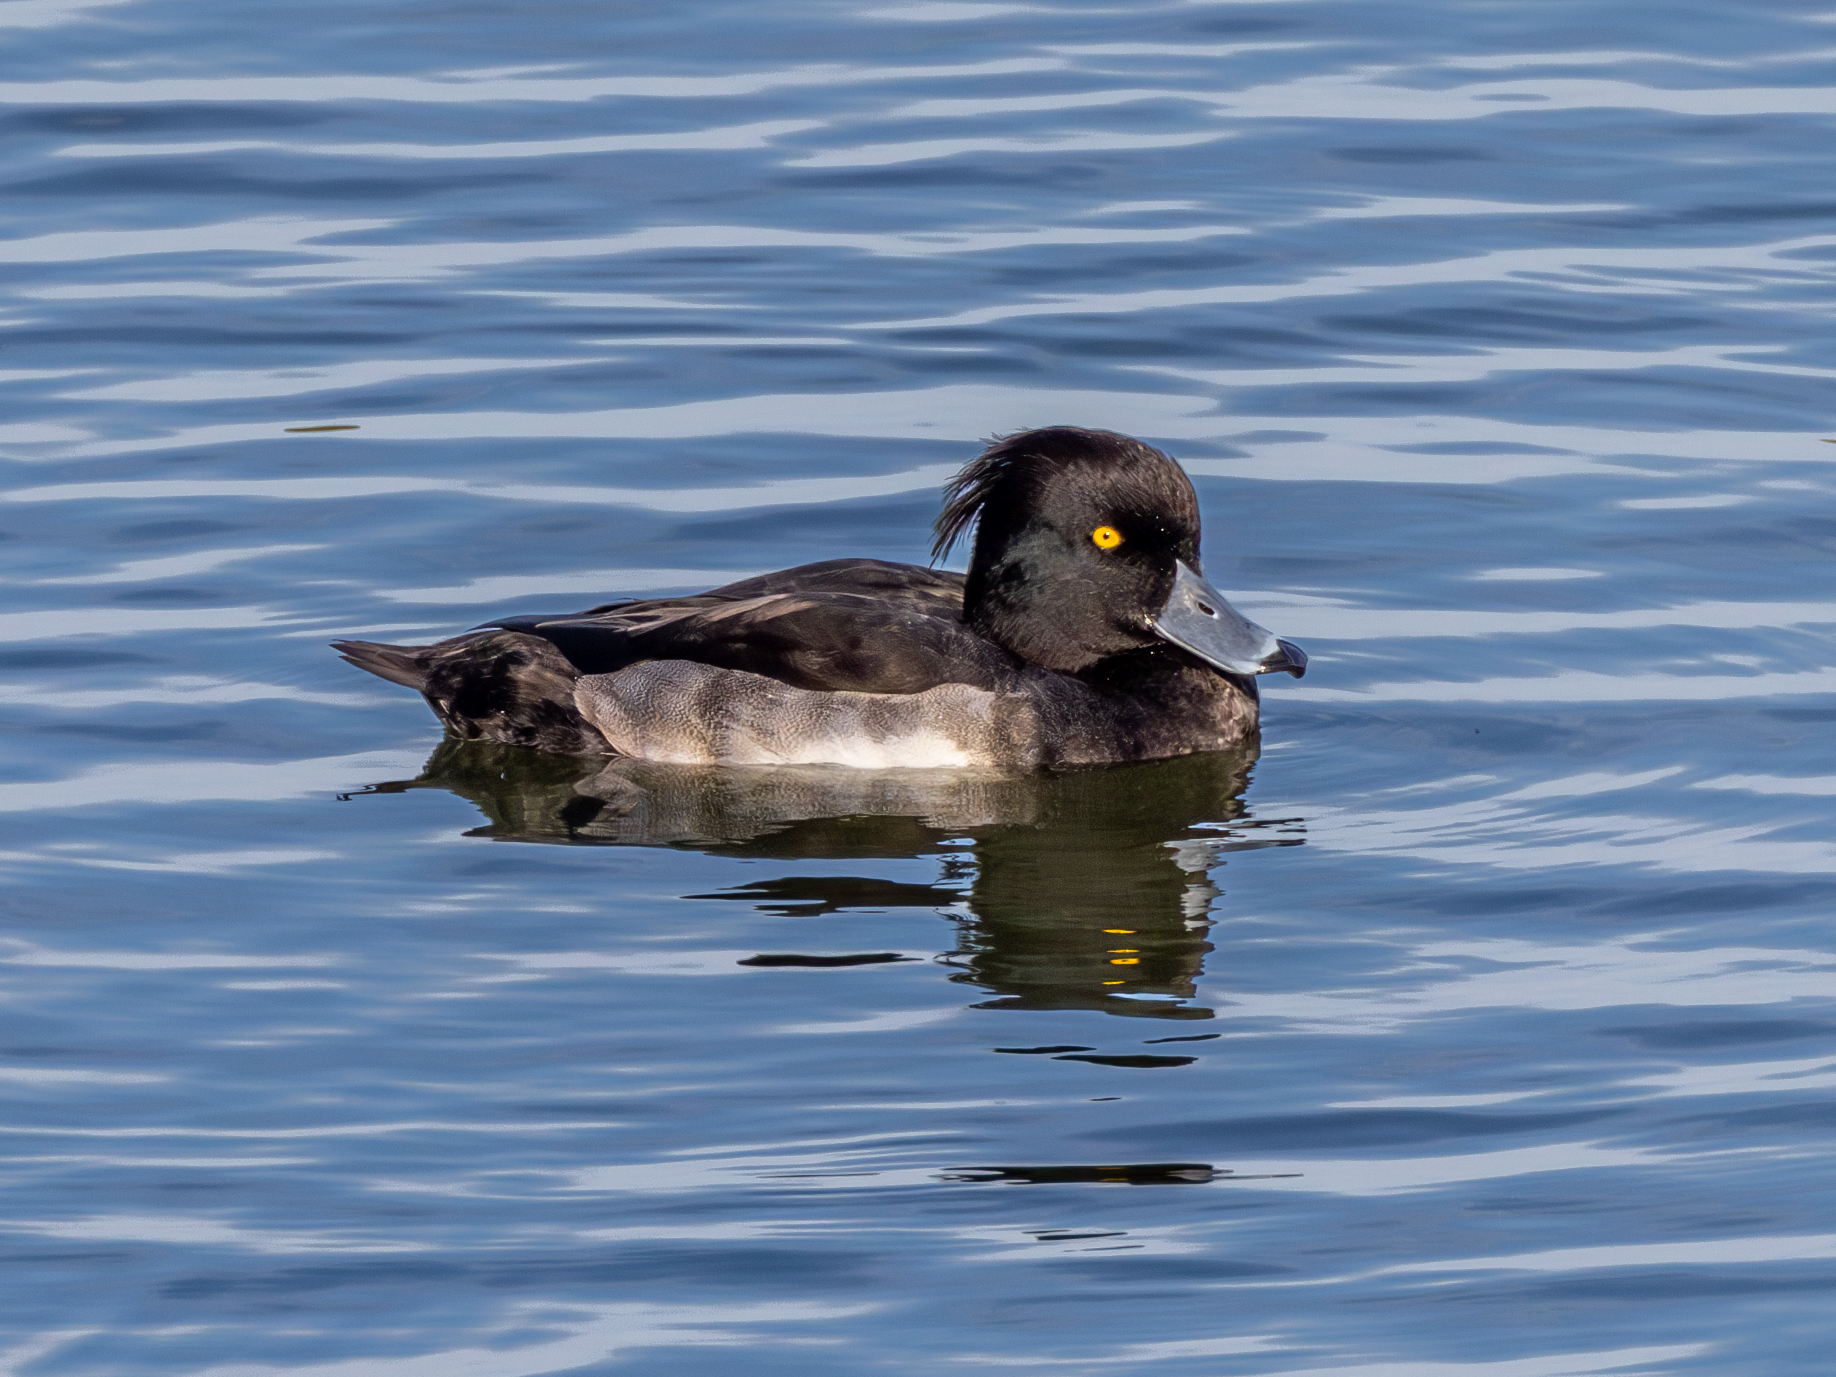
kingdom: Animalia
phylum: Chordata
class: Aves
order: Anseriformes
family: Anatidae
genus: Aythya
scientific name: Aythya fuligula
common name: Tufted duck
